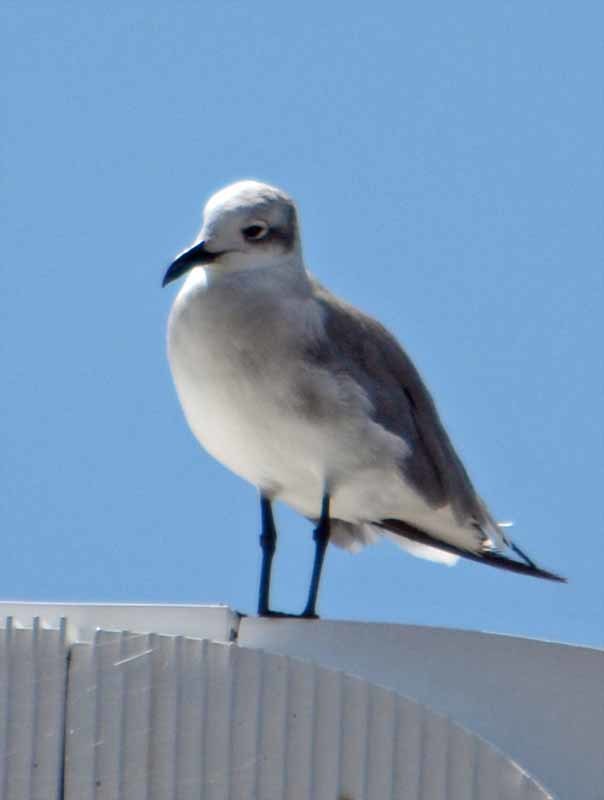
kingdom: Animalia
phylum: Chordata
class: Aves
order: Charadriiformes
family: Laridae
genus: Leucophaeus
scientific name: Leucophaeus atricilla
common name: Laughing gull
